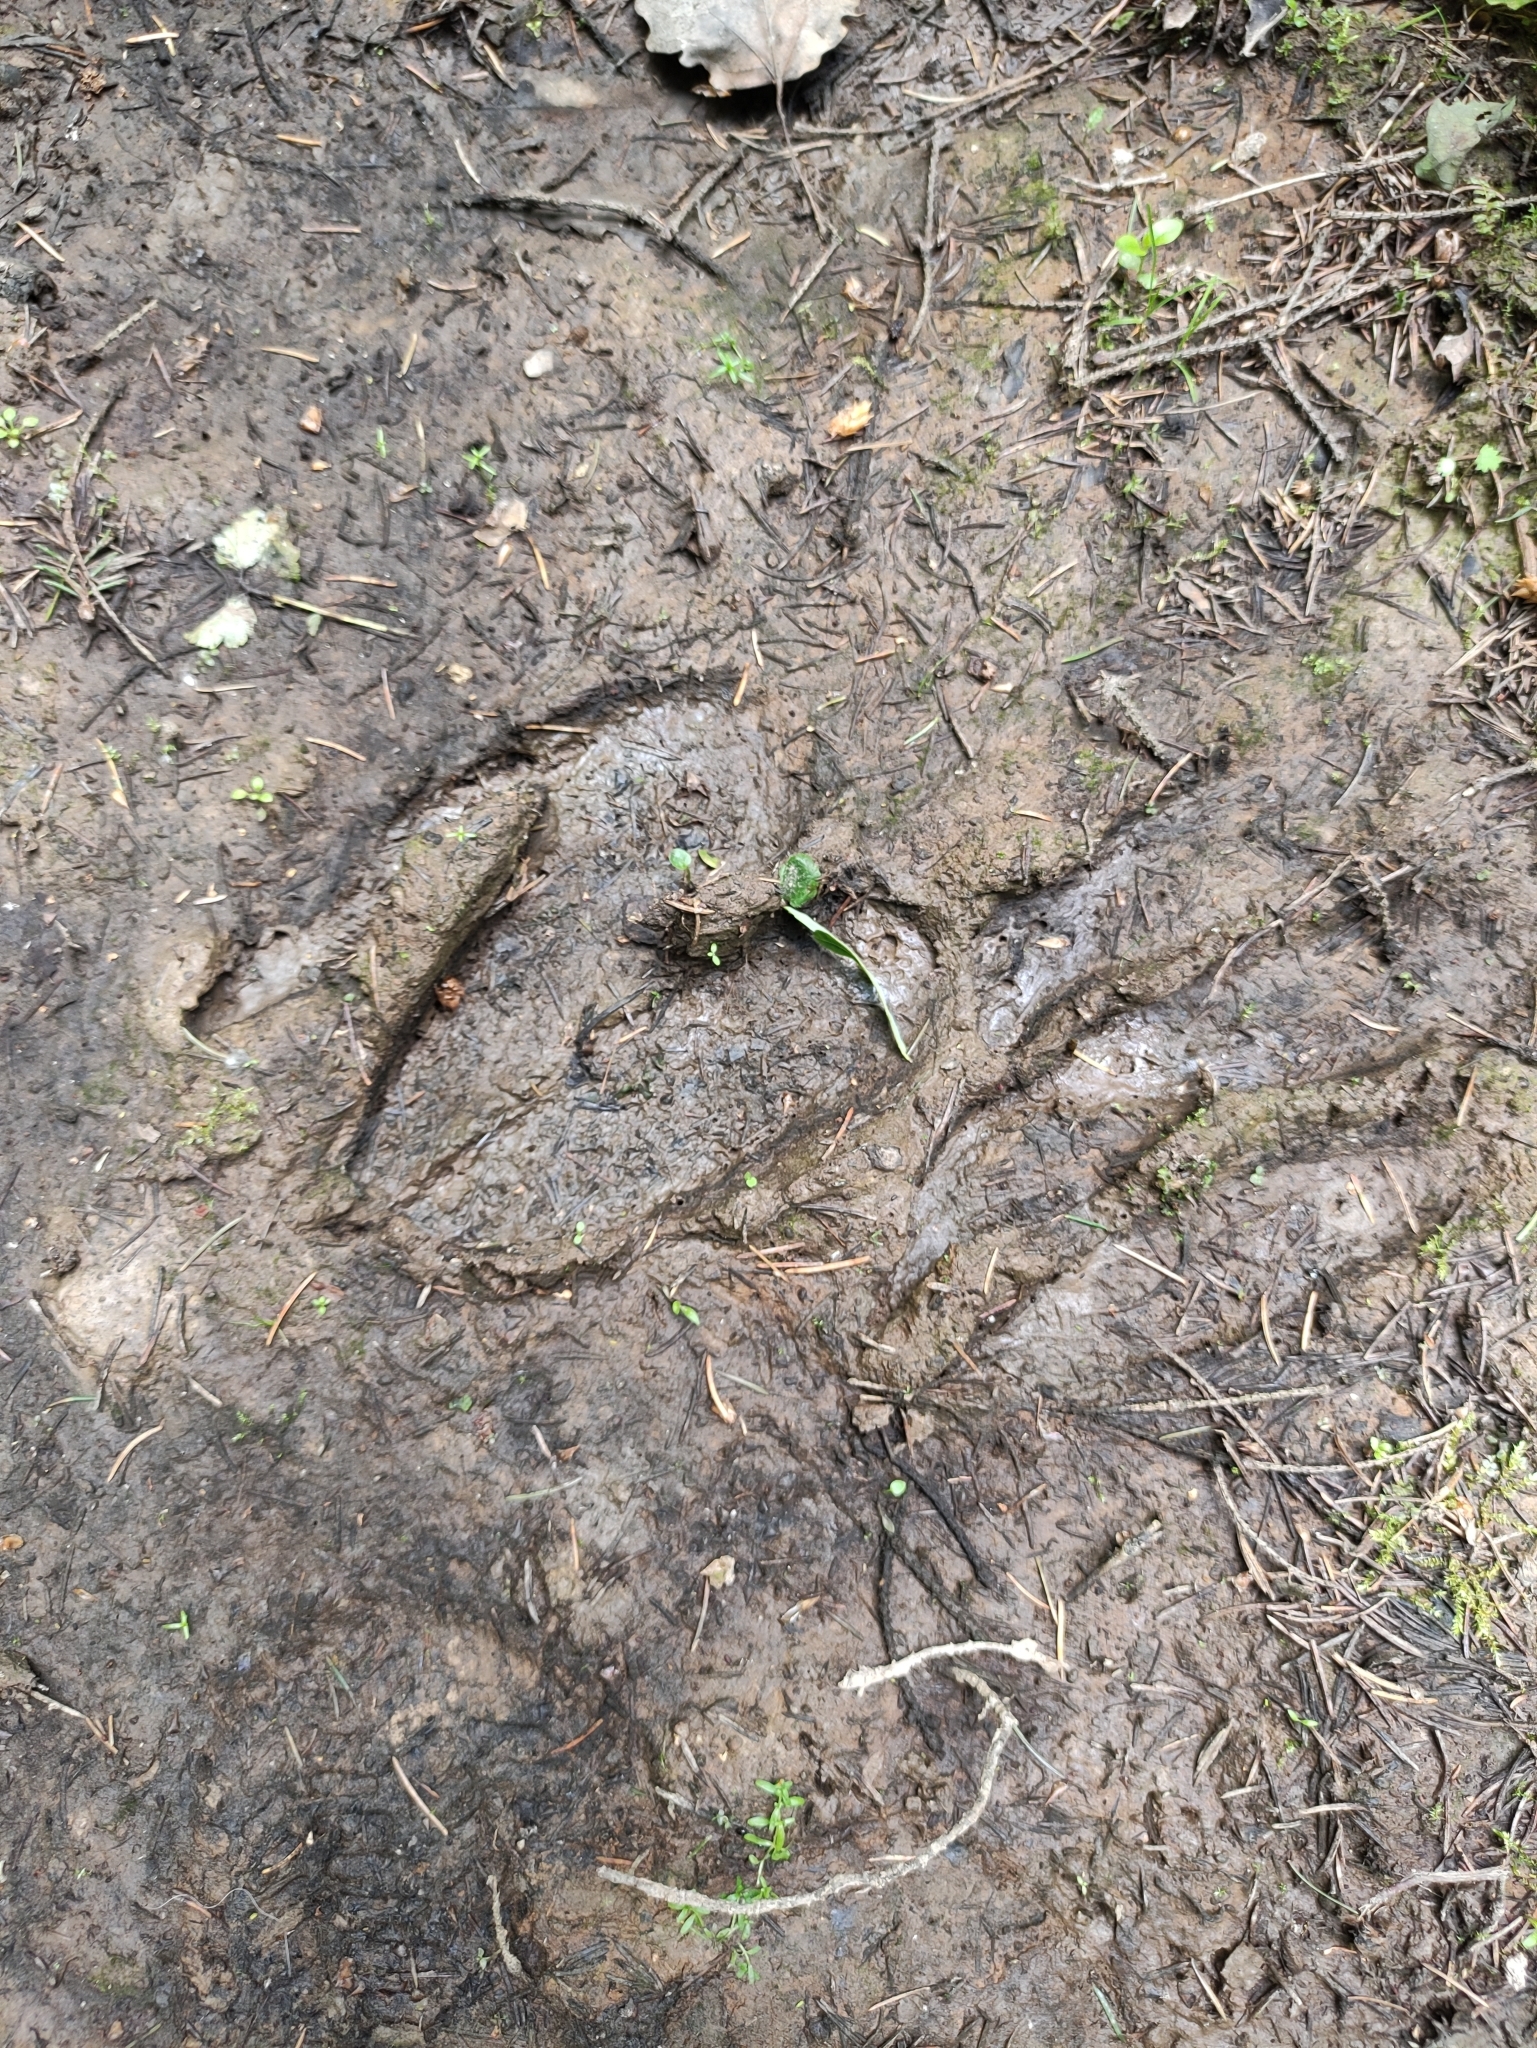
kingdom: Animalia
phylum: Chordata
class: Mammalia
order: Artiodactyla
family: Cervidae
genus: Alces
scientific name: Alces alces
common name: Moose
